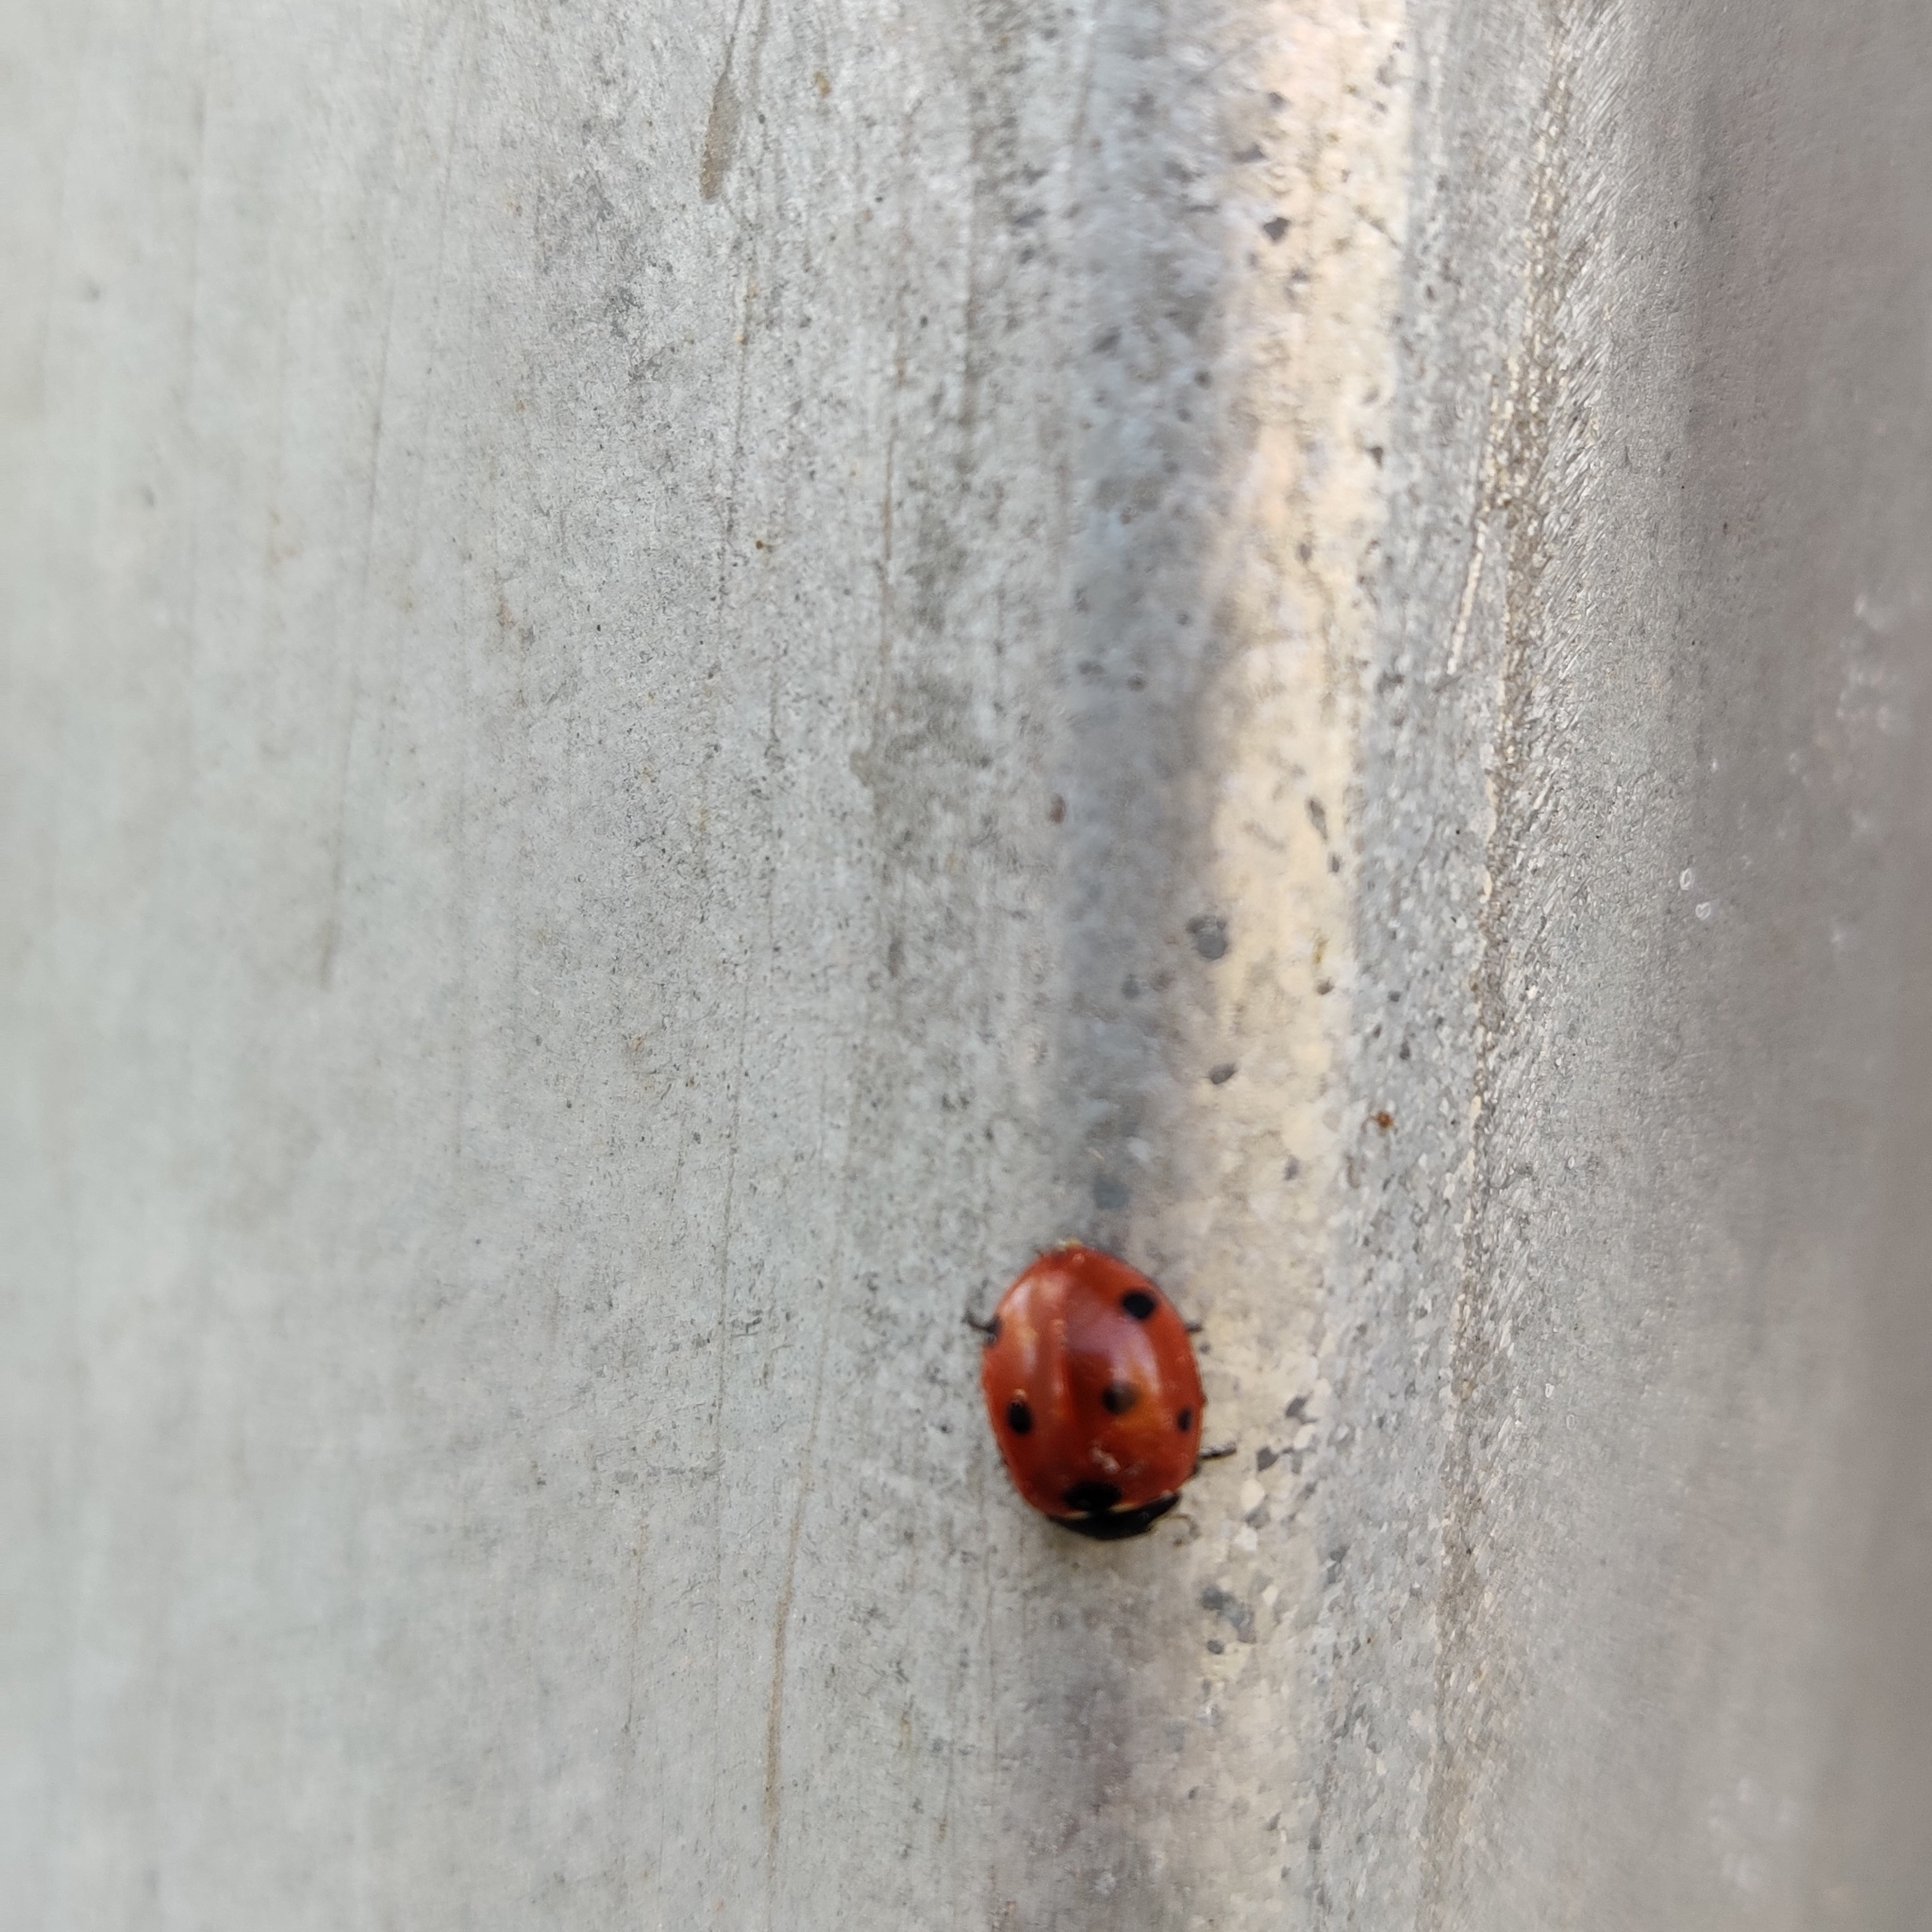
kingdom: Animalia
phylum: Arthropoda
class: Insecta
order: Coleoptera
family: Coccinellidae
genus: Coccinella
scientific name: Coccinella septempunctata
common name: Sevenspotted lady beetle
